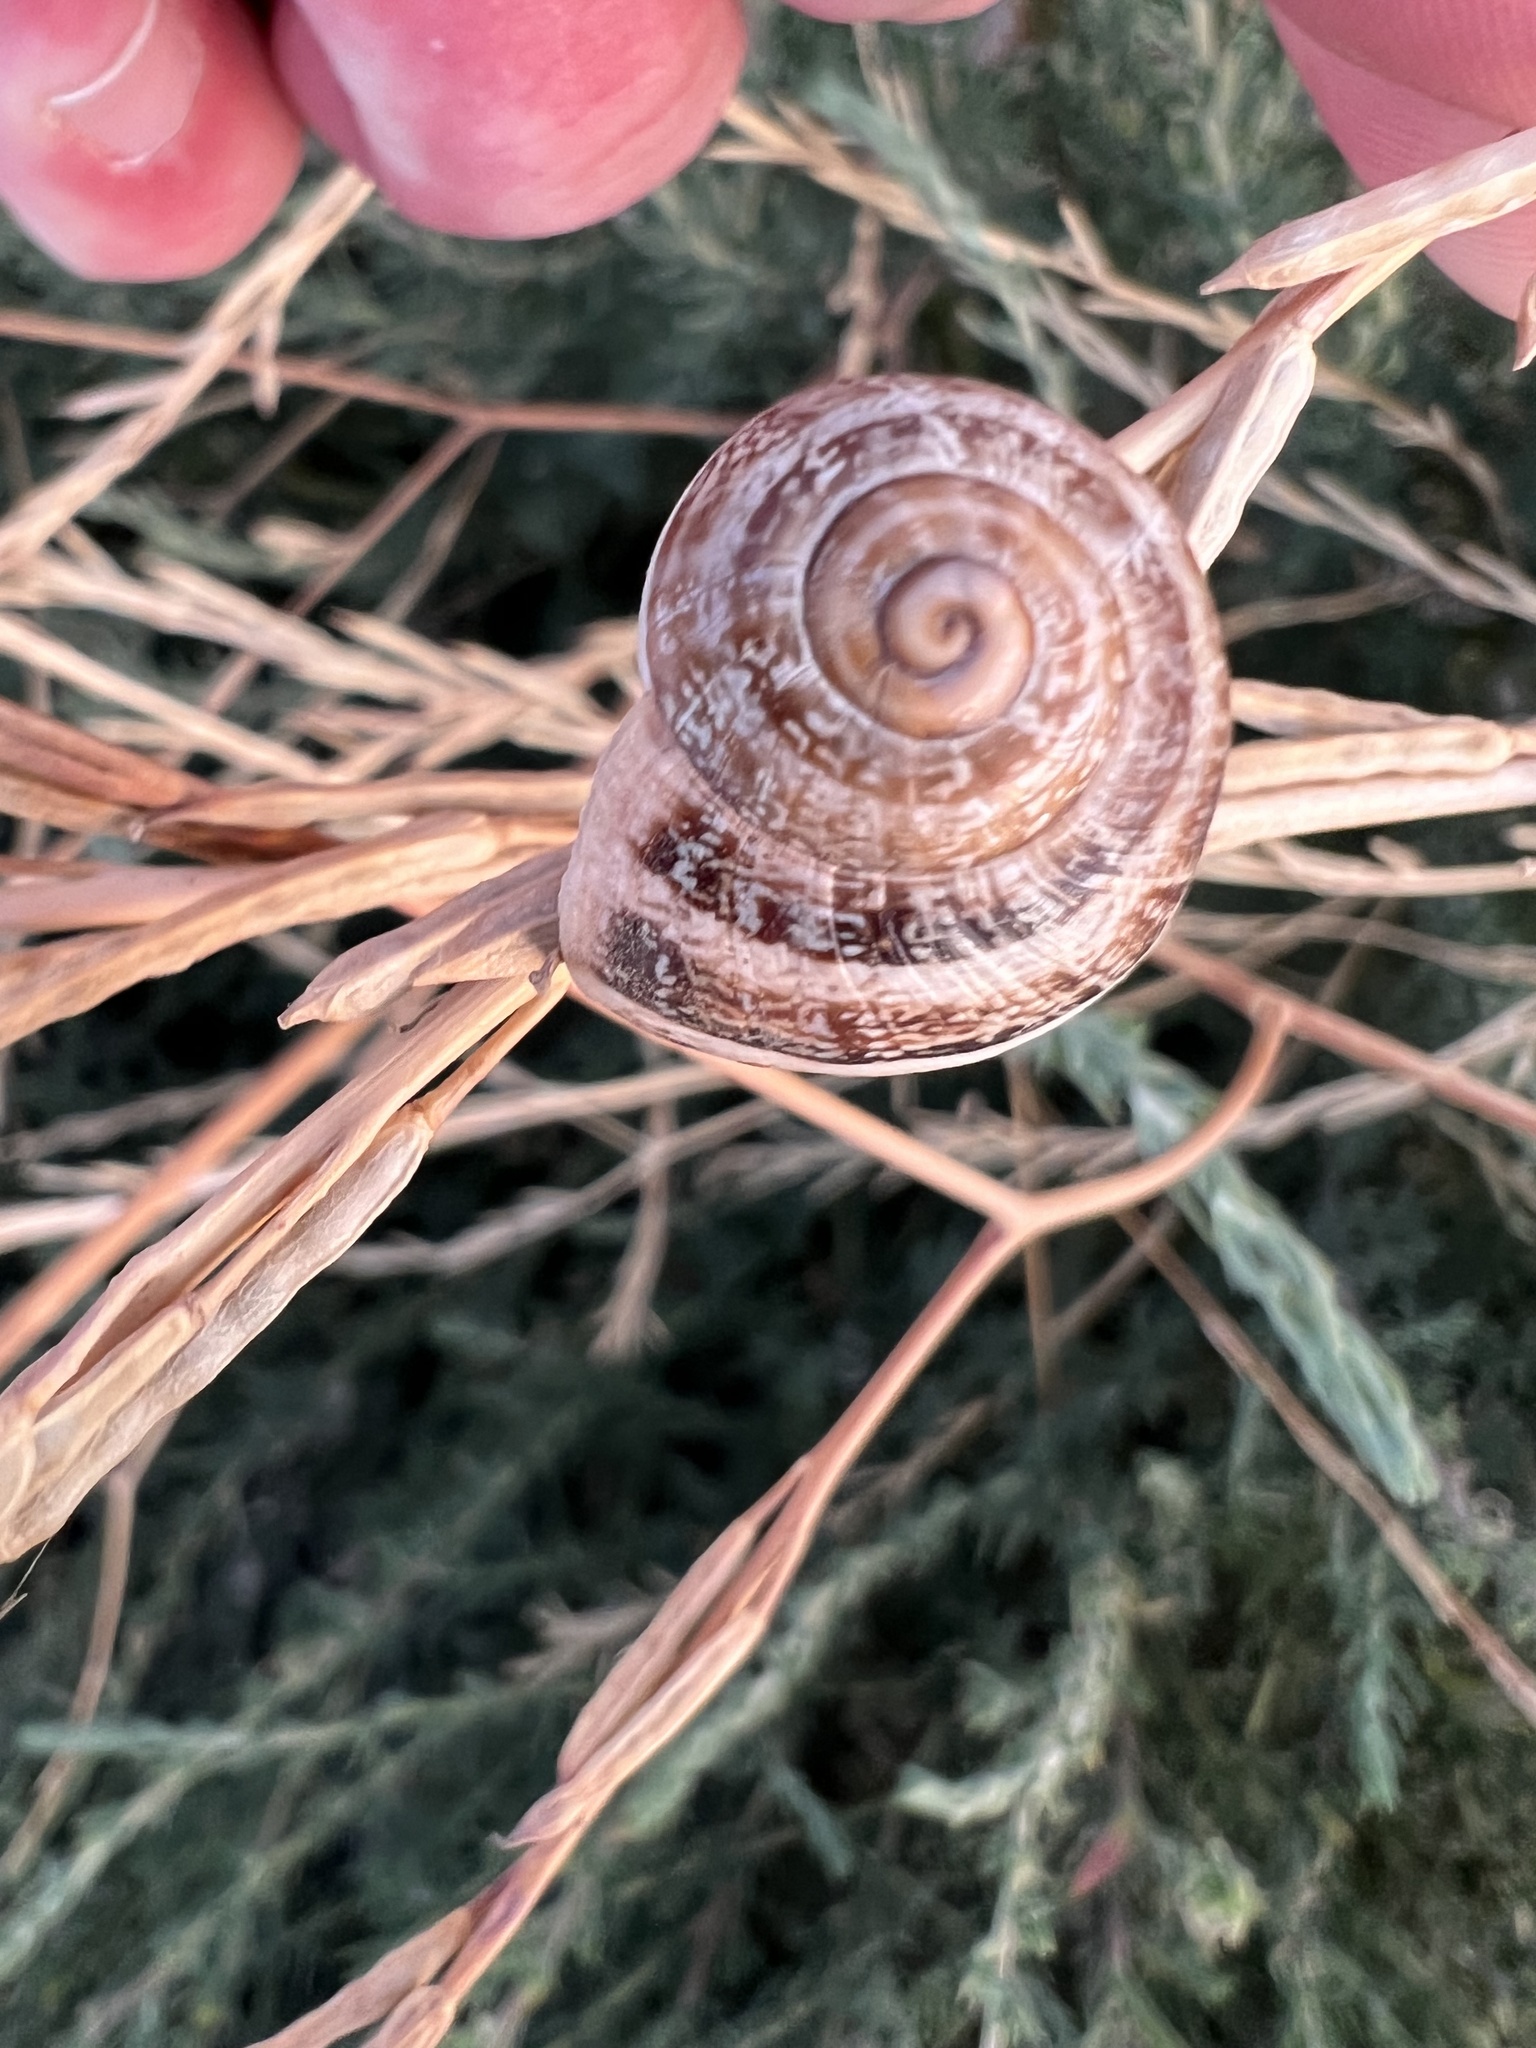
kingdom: Animalia
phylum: Mollusca
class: Gastropoda
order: Stylommatophora
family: Helicidae
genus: Otala
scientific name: Otala lactea
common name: Milk snail
